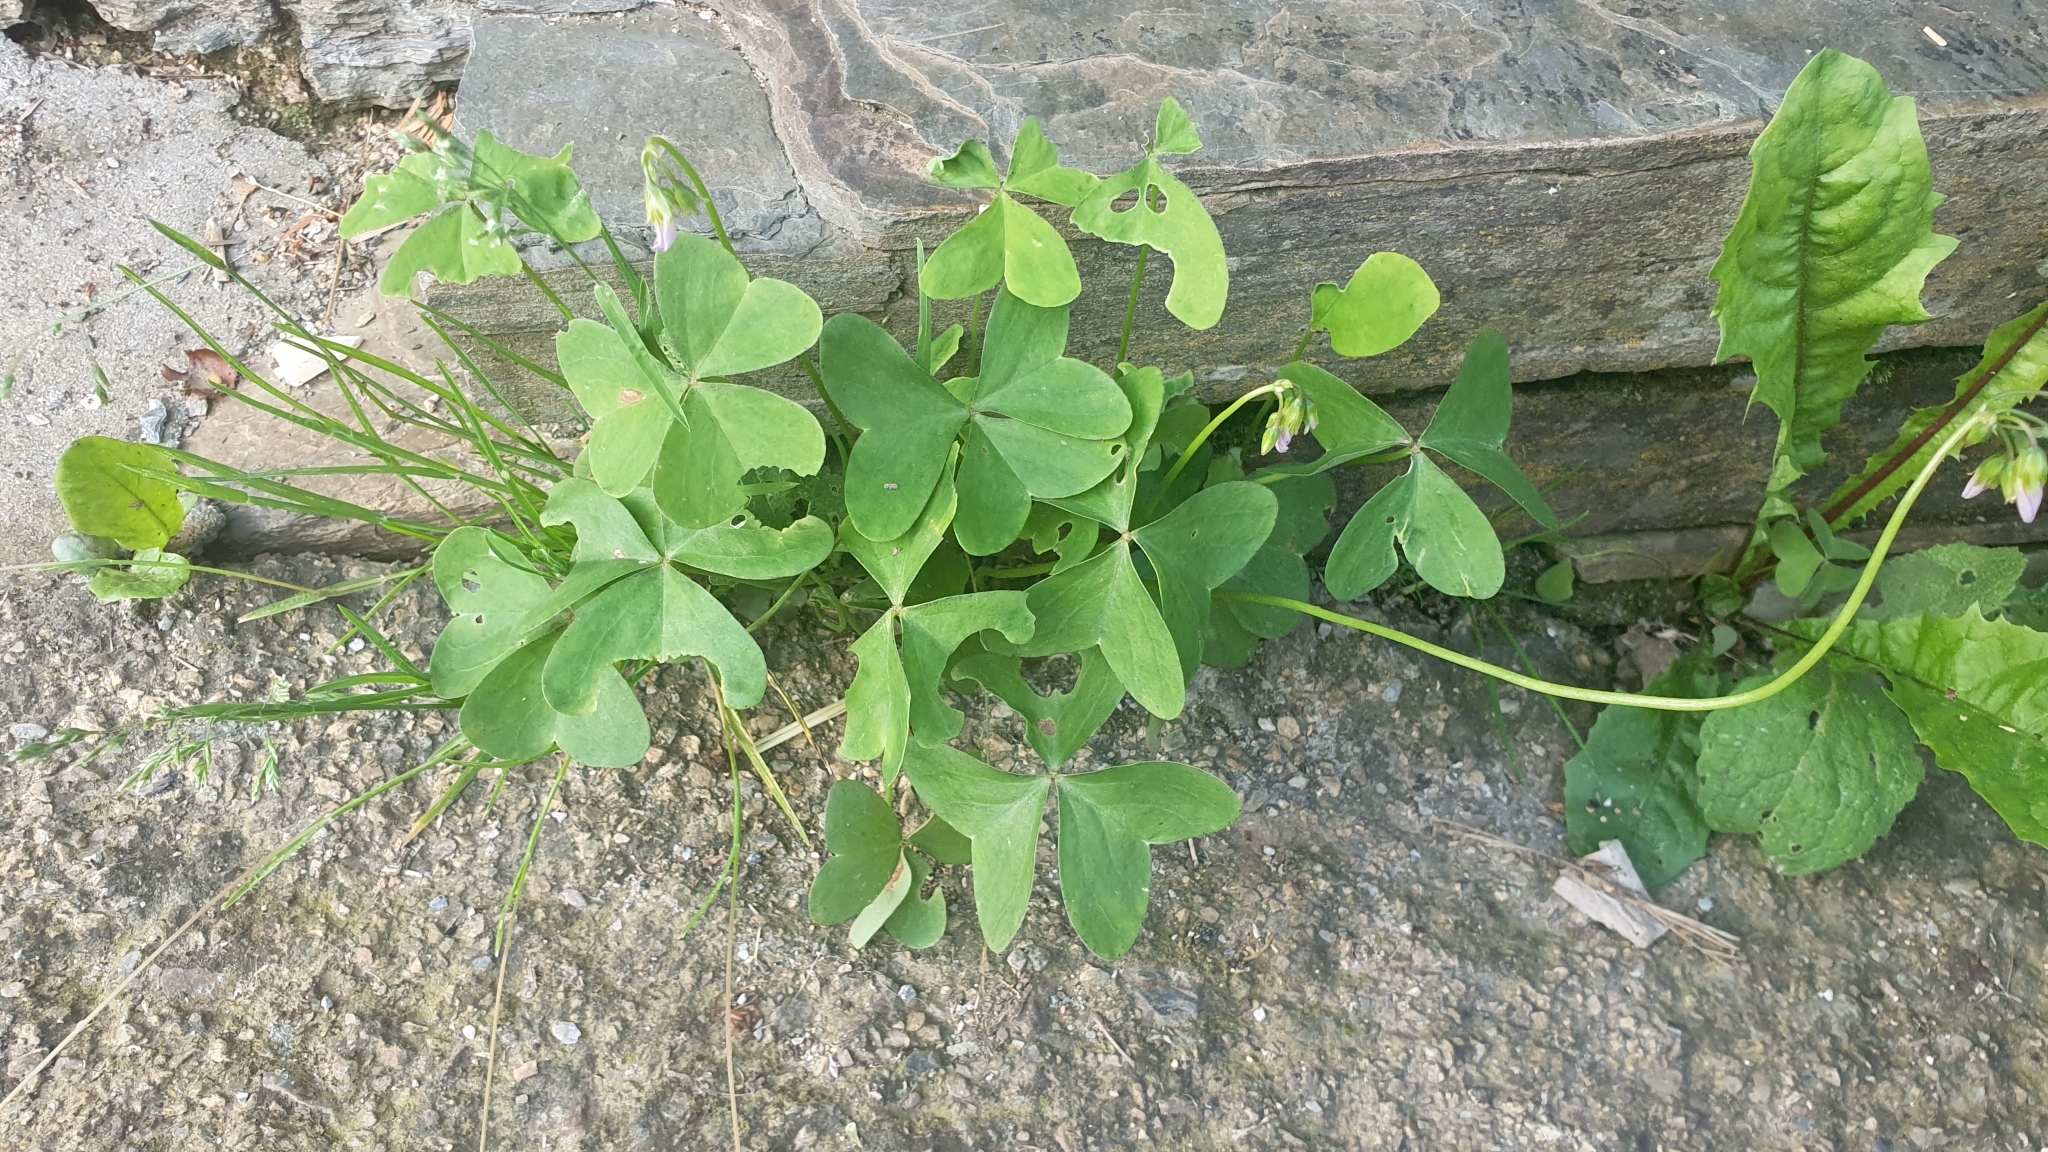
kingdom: Plantae
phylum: Tracheophyta
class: Magnoliopsida
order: Oxalidales
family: Oxalidaceae
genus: Oxalis
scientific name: Oxalis acetosella
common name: Wood-sorrel
